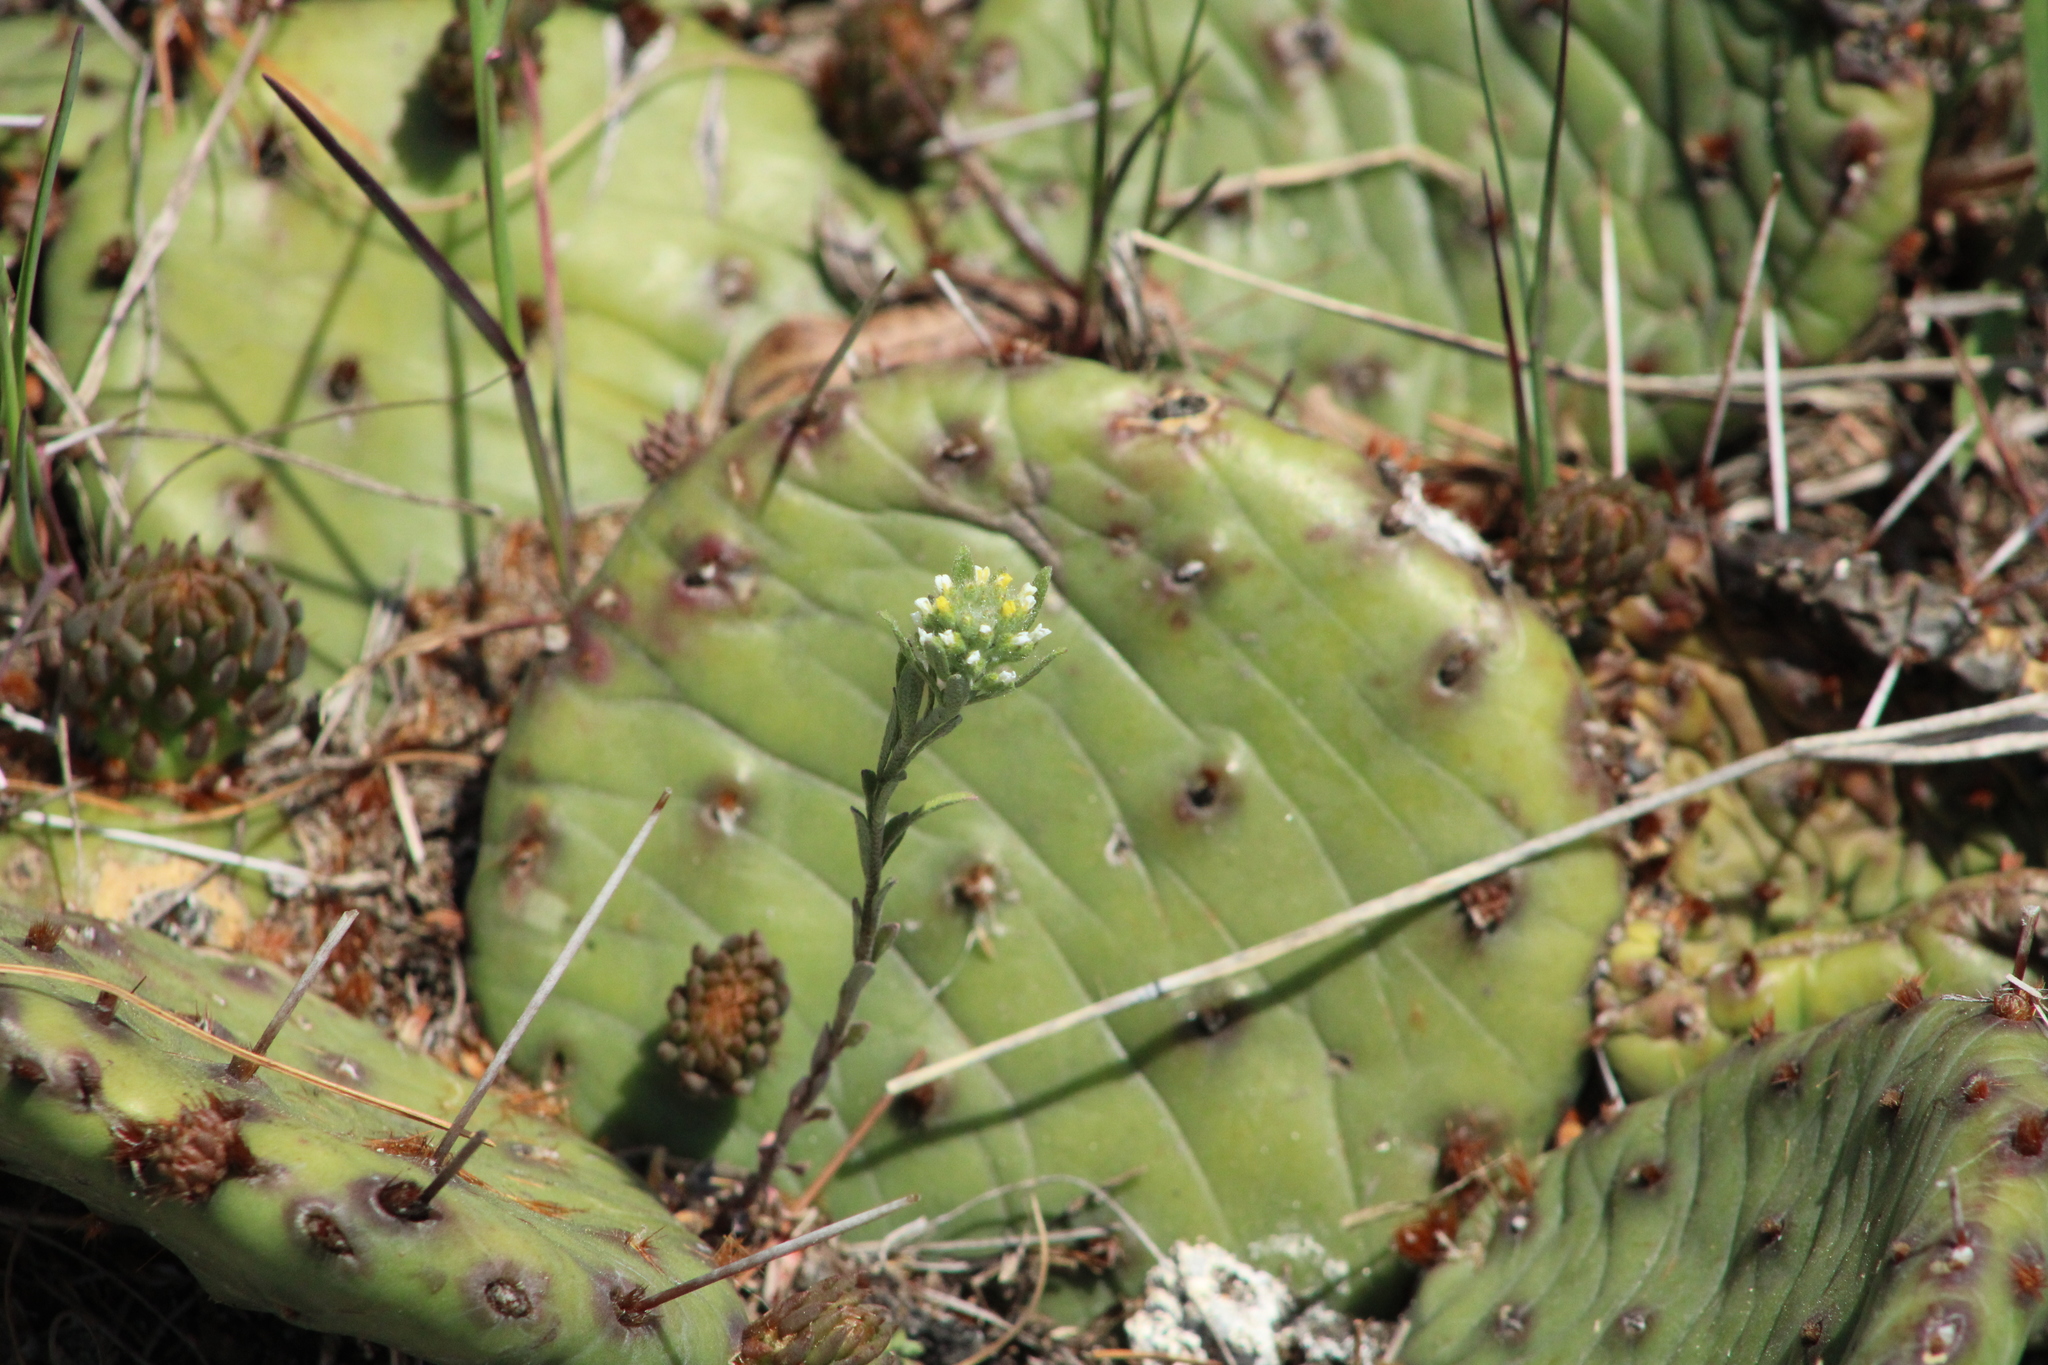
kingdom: Plantae
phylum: Tracheophyta
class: Magnoliopsida
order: Caryophyllales
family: Cactaceae
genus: Opuntia
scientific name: Opuntia humifusa
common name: Eastern prickly-pear
